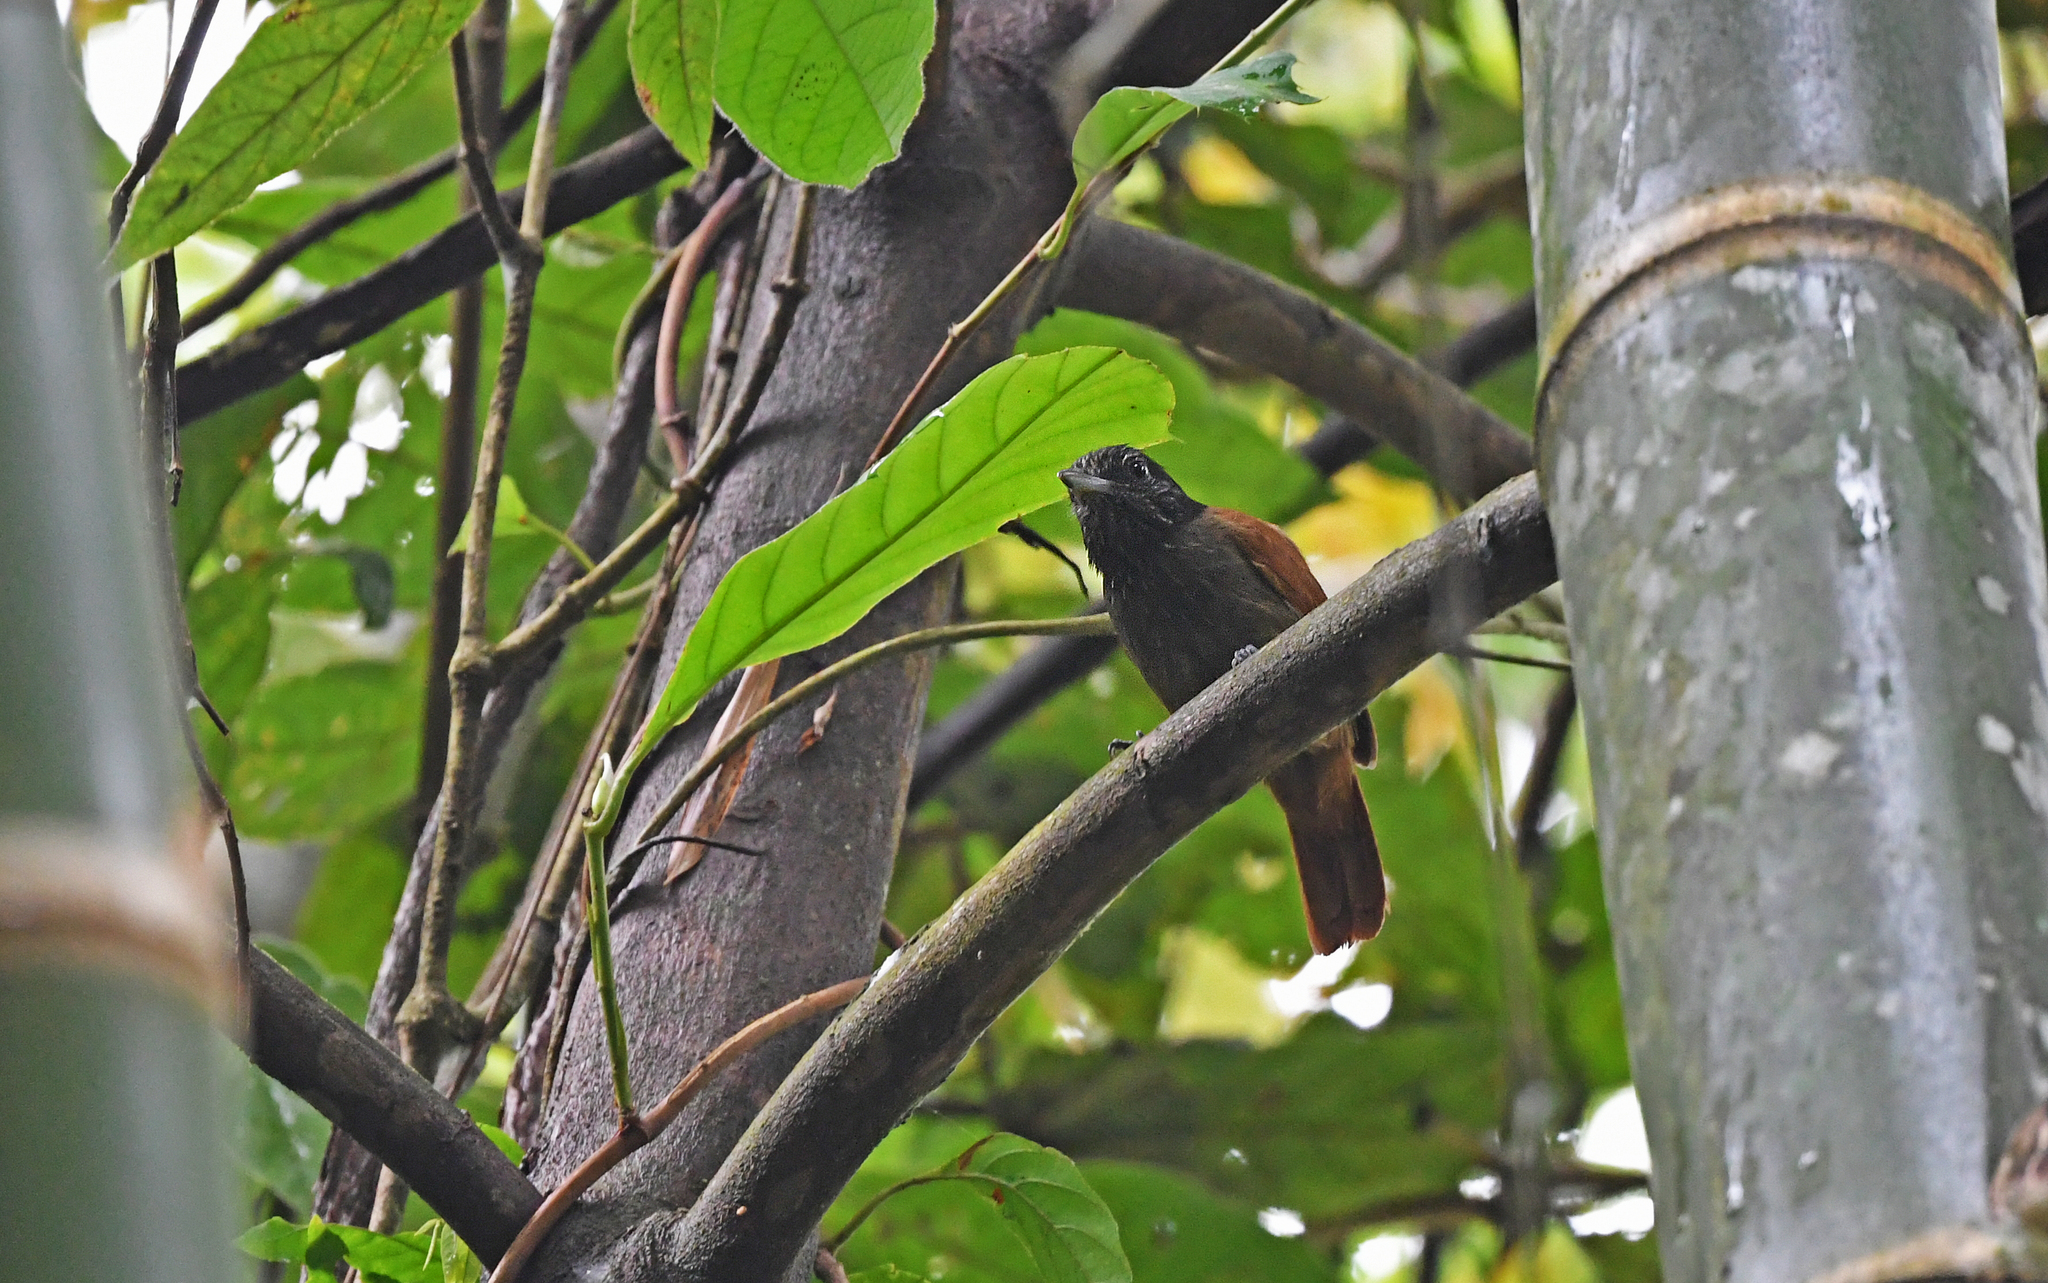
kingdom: Animalia
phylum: Chordata
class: Aves
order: Passeriformes
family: Thamnophilidae
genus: Thamnophilus
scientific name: Thamnophilus nigriceps
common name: Black antshrike
